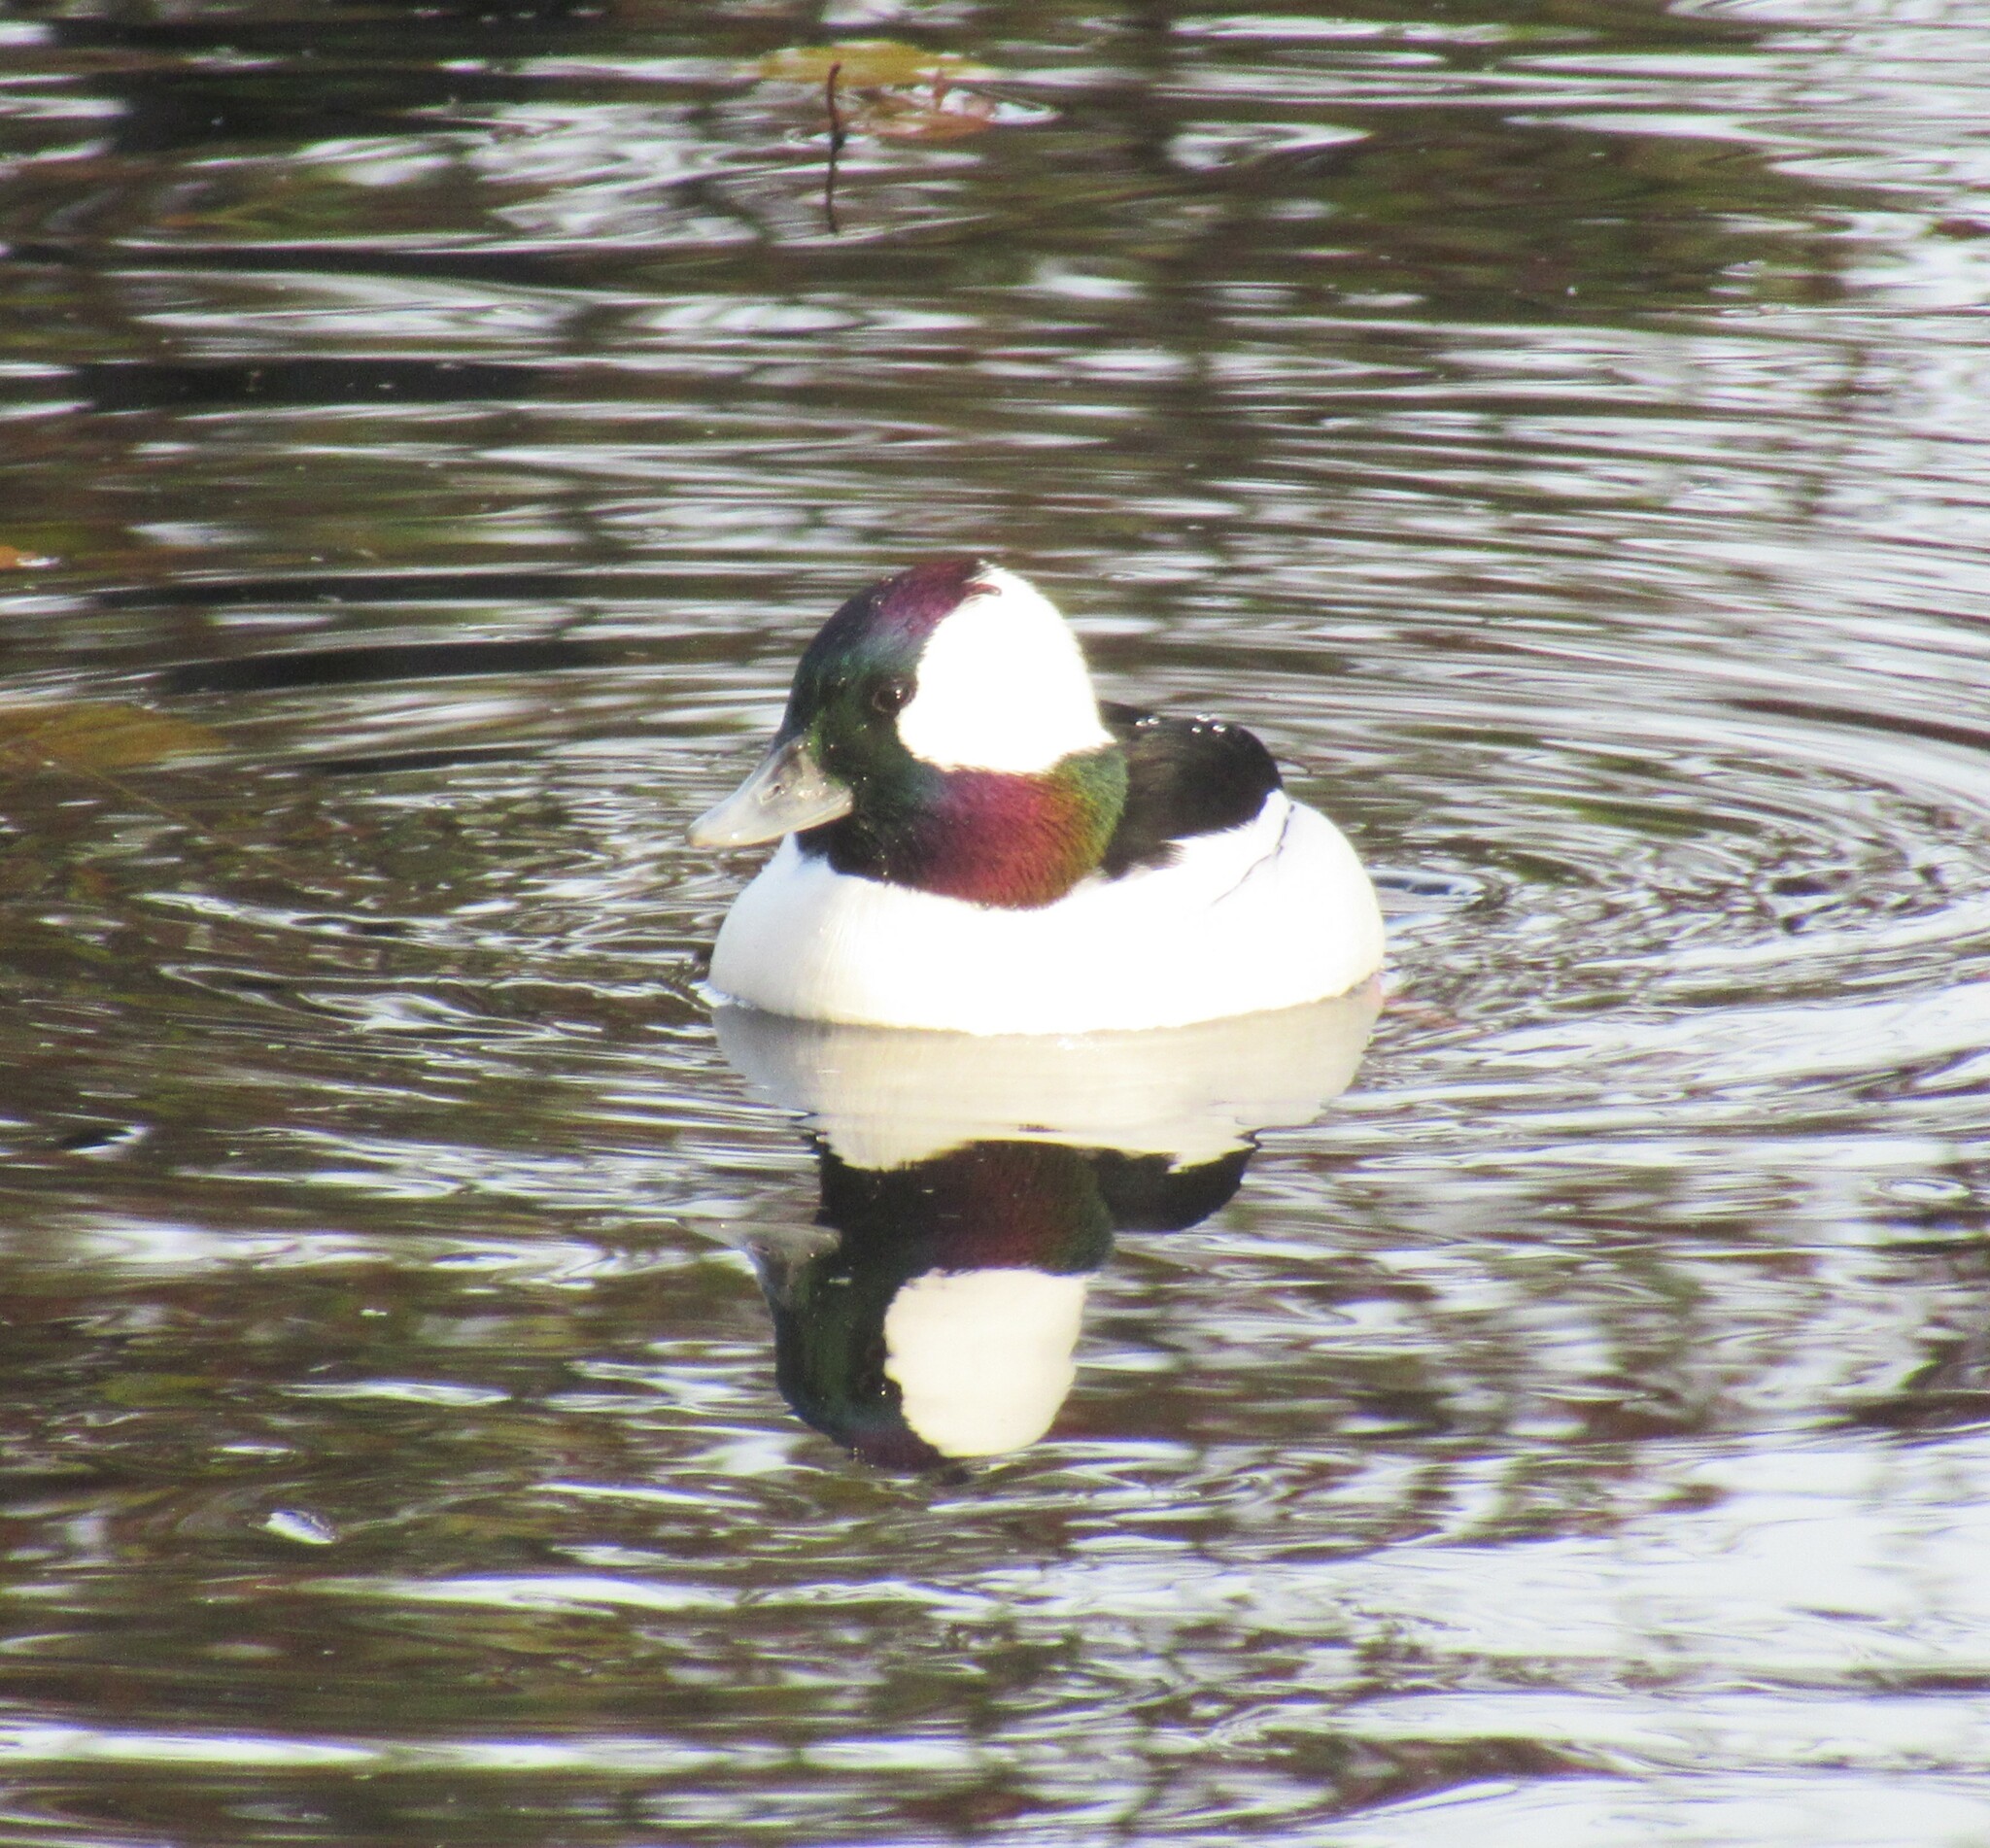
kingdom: Animalia
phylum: Chordata
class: Aves
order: Anseriformes
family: Anatidae
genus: Bucephala
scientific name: Bucephala albeola
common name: Bufflehead
